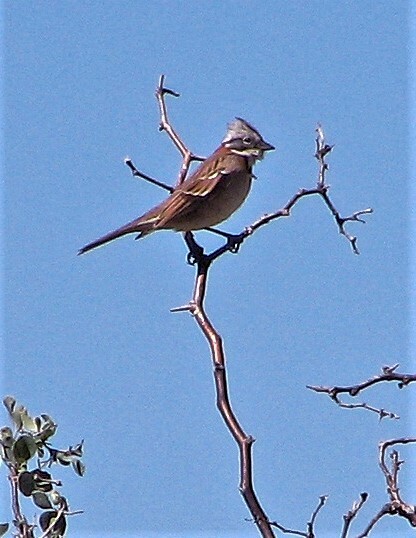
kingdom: Animalia
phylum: Chordata
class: Aves
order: Passeriformes
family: Passerellidae
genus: Zonotrichia
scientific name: Zonotrichia capensis
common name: Rufous-collared sparrow
